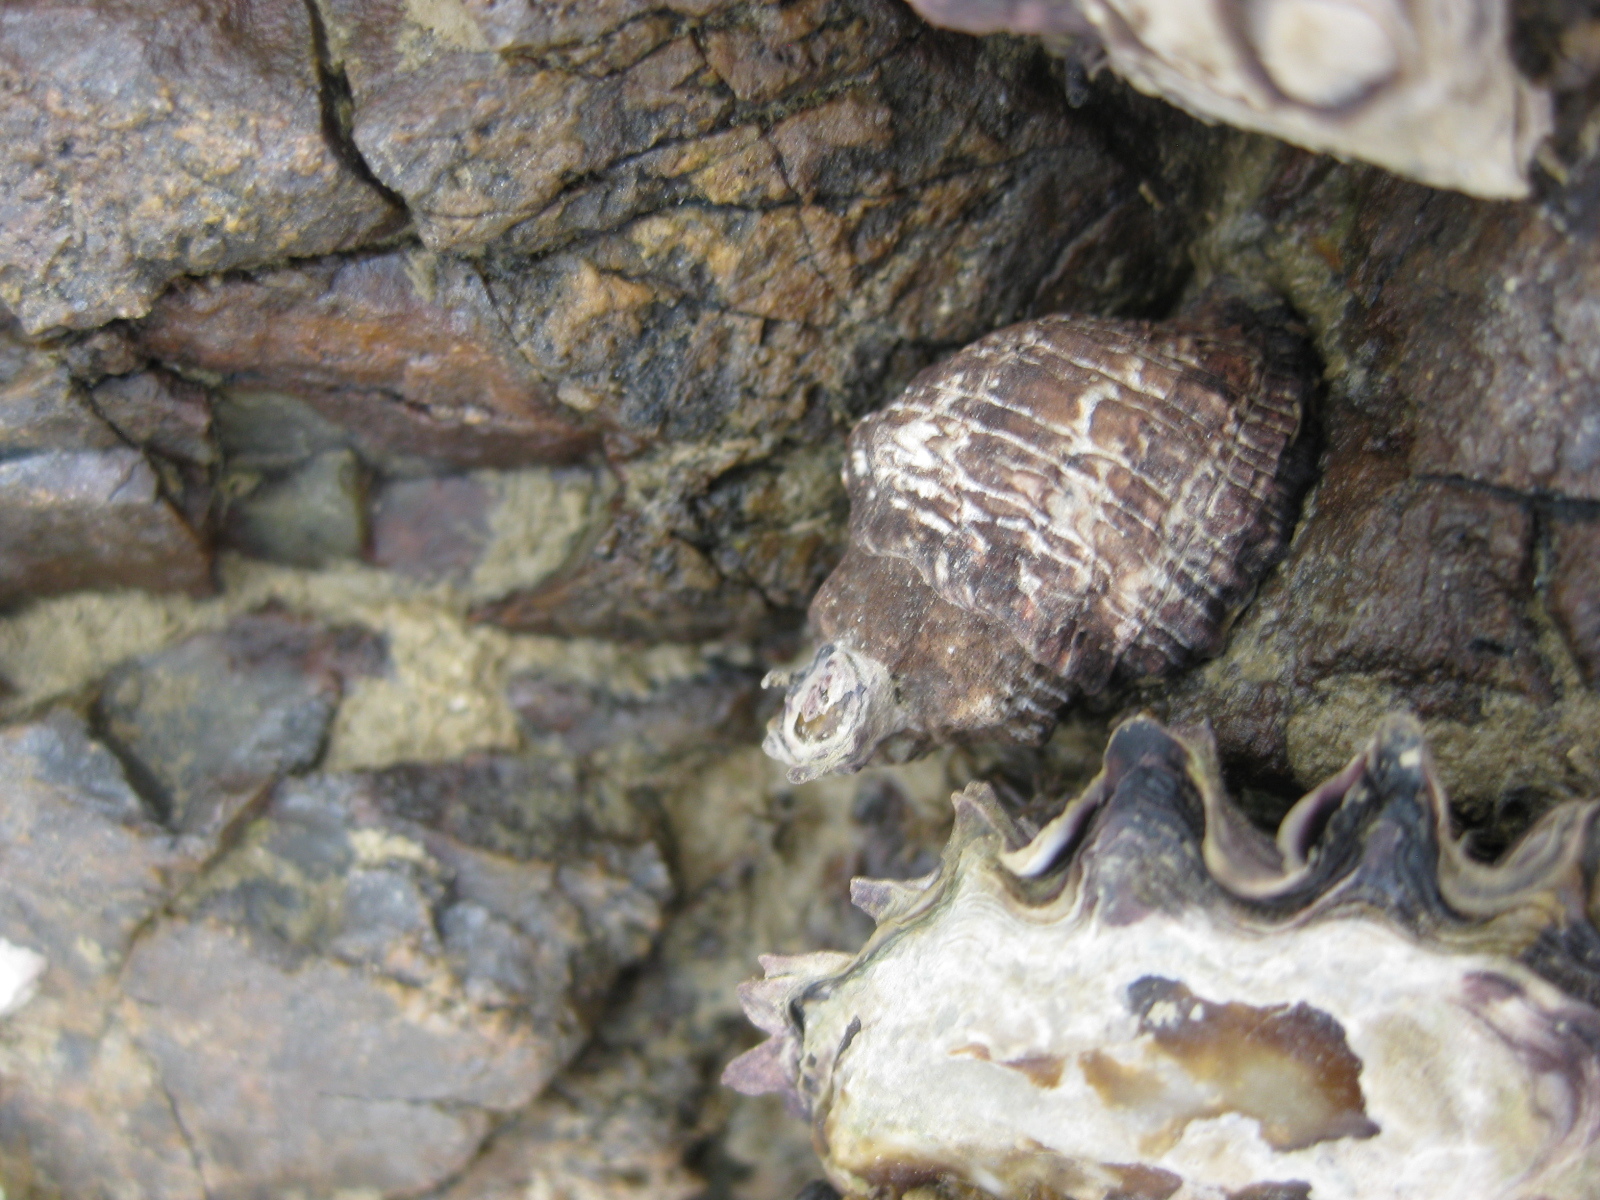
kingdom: Animalia
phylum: Mollusca
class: Gastropoda
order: Neogastropoda
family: Muricidae
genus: Haustrum
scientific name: Haustrum albomarginatum
